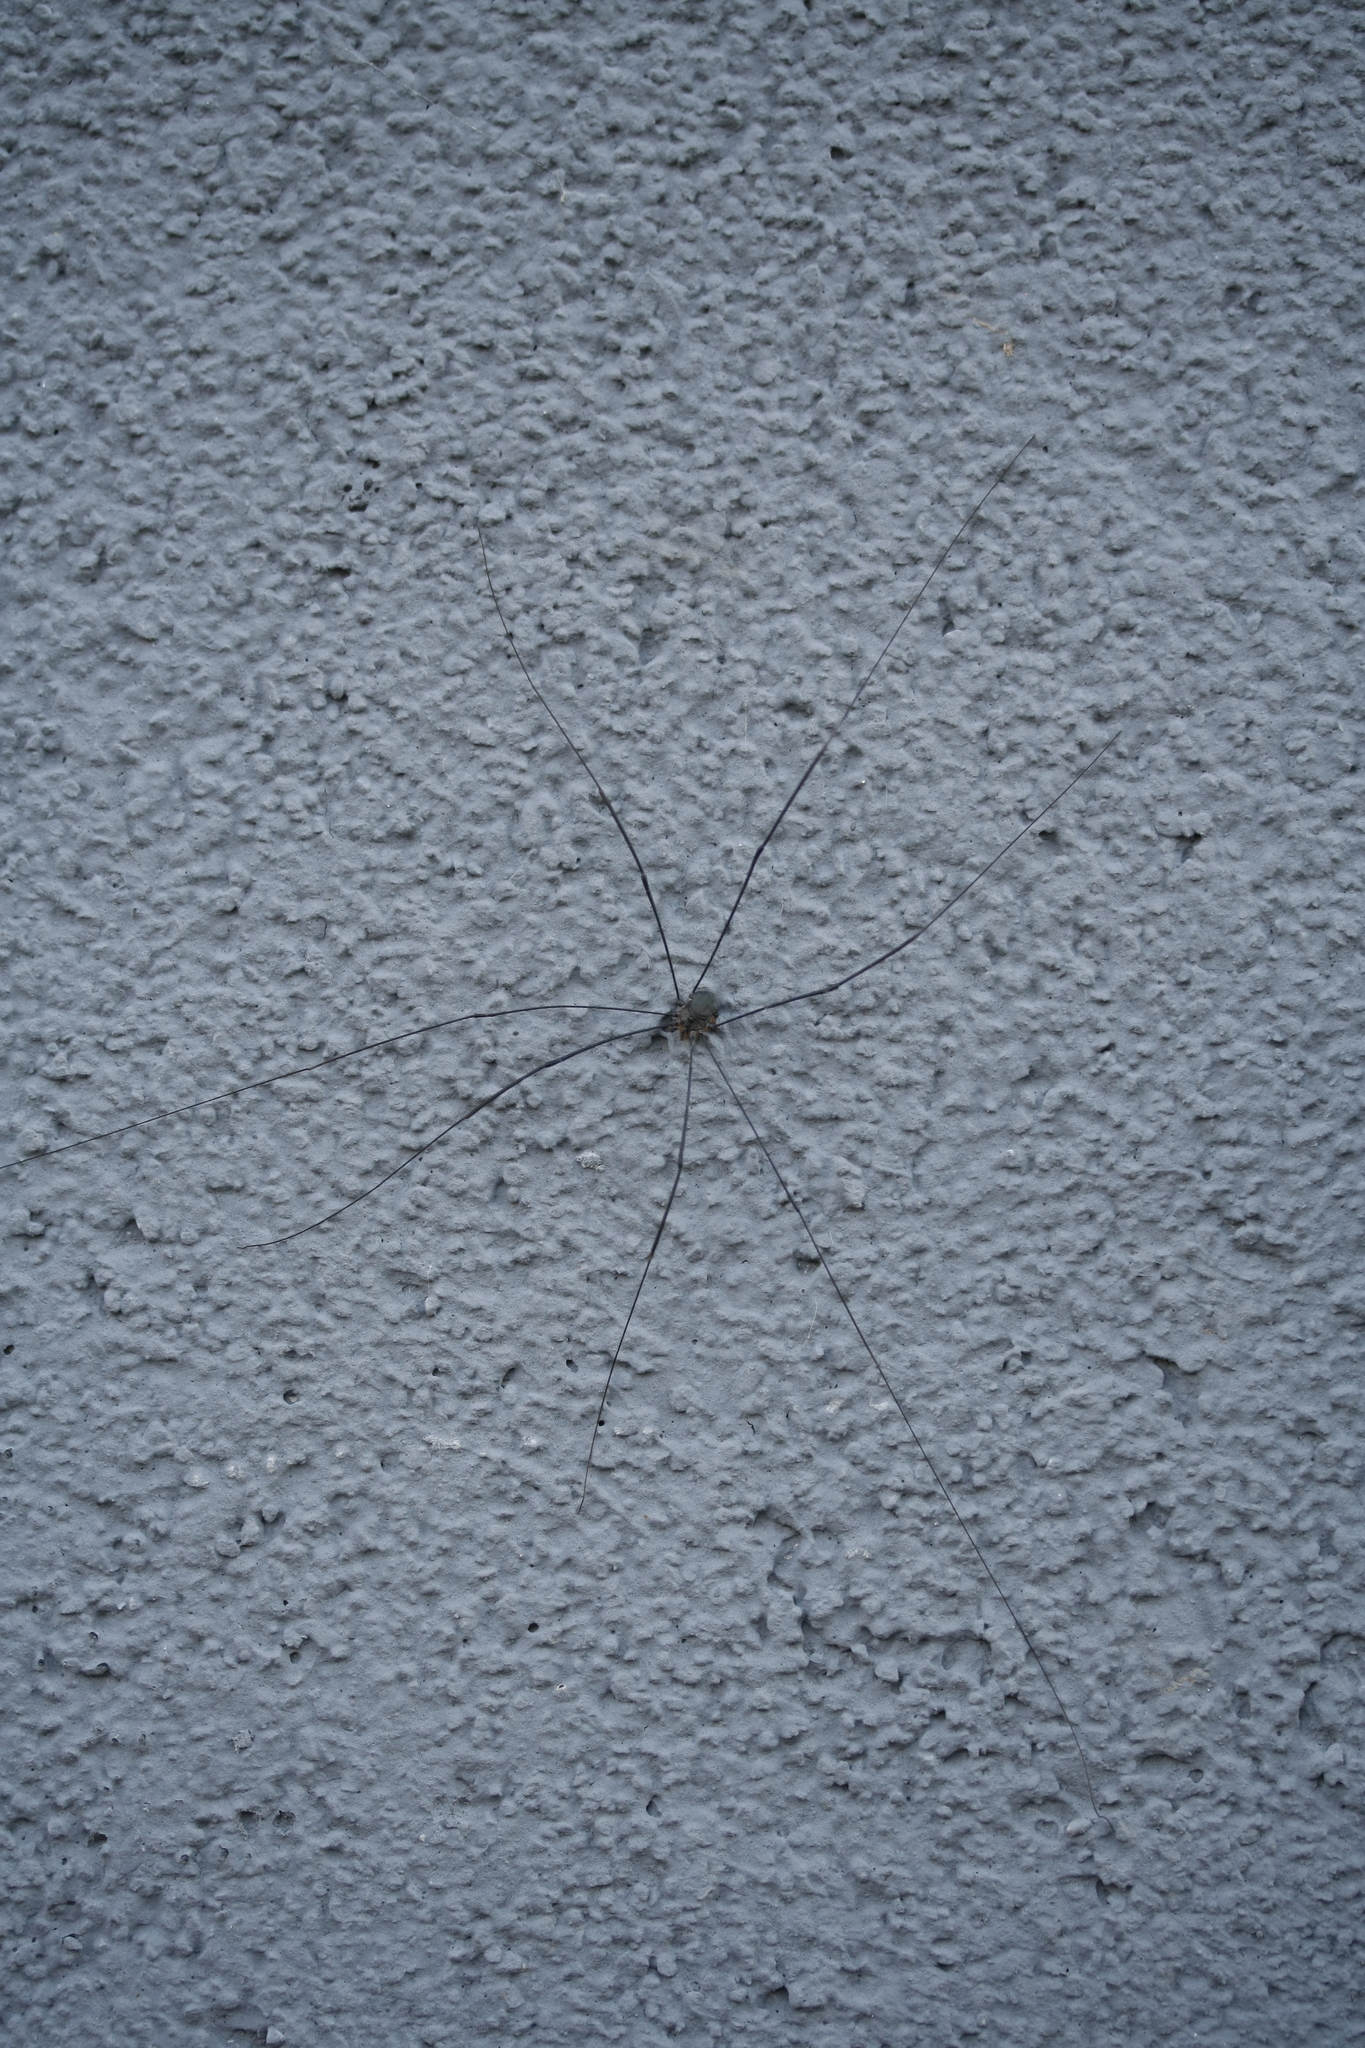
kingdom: Animalia
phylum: Arthropoda
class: Arachnida
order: Opiliones
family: Sclerosomatidae
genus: Leiobunum
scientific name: Leiobunum
